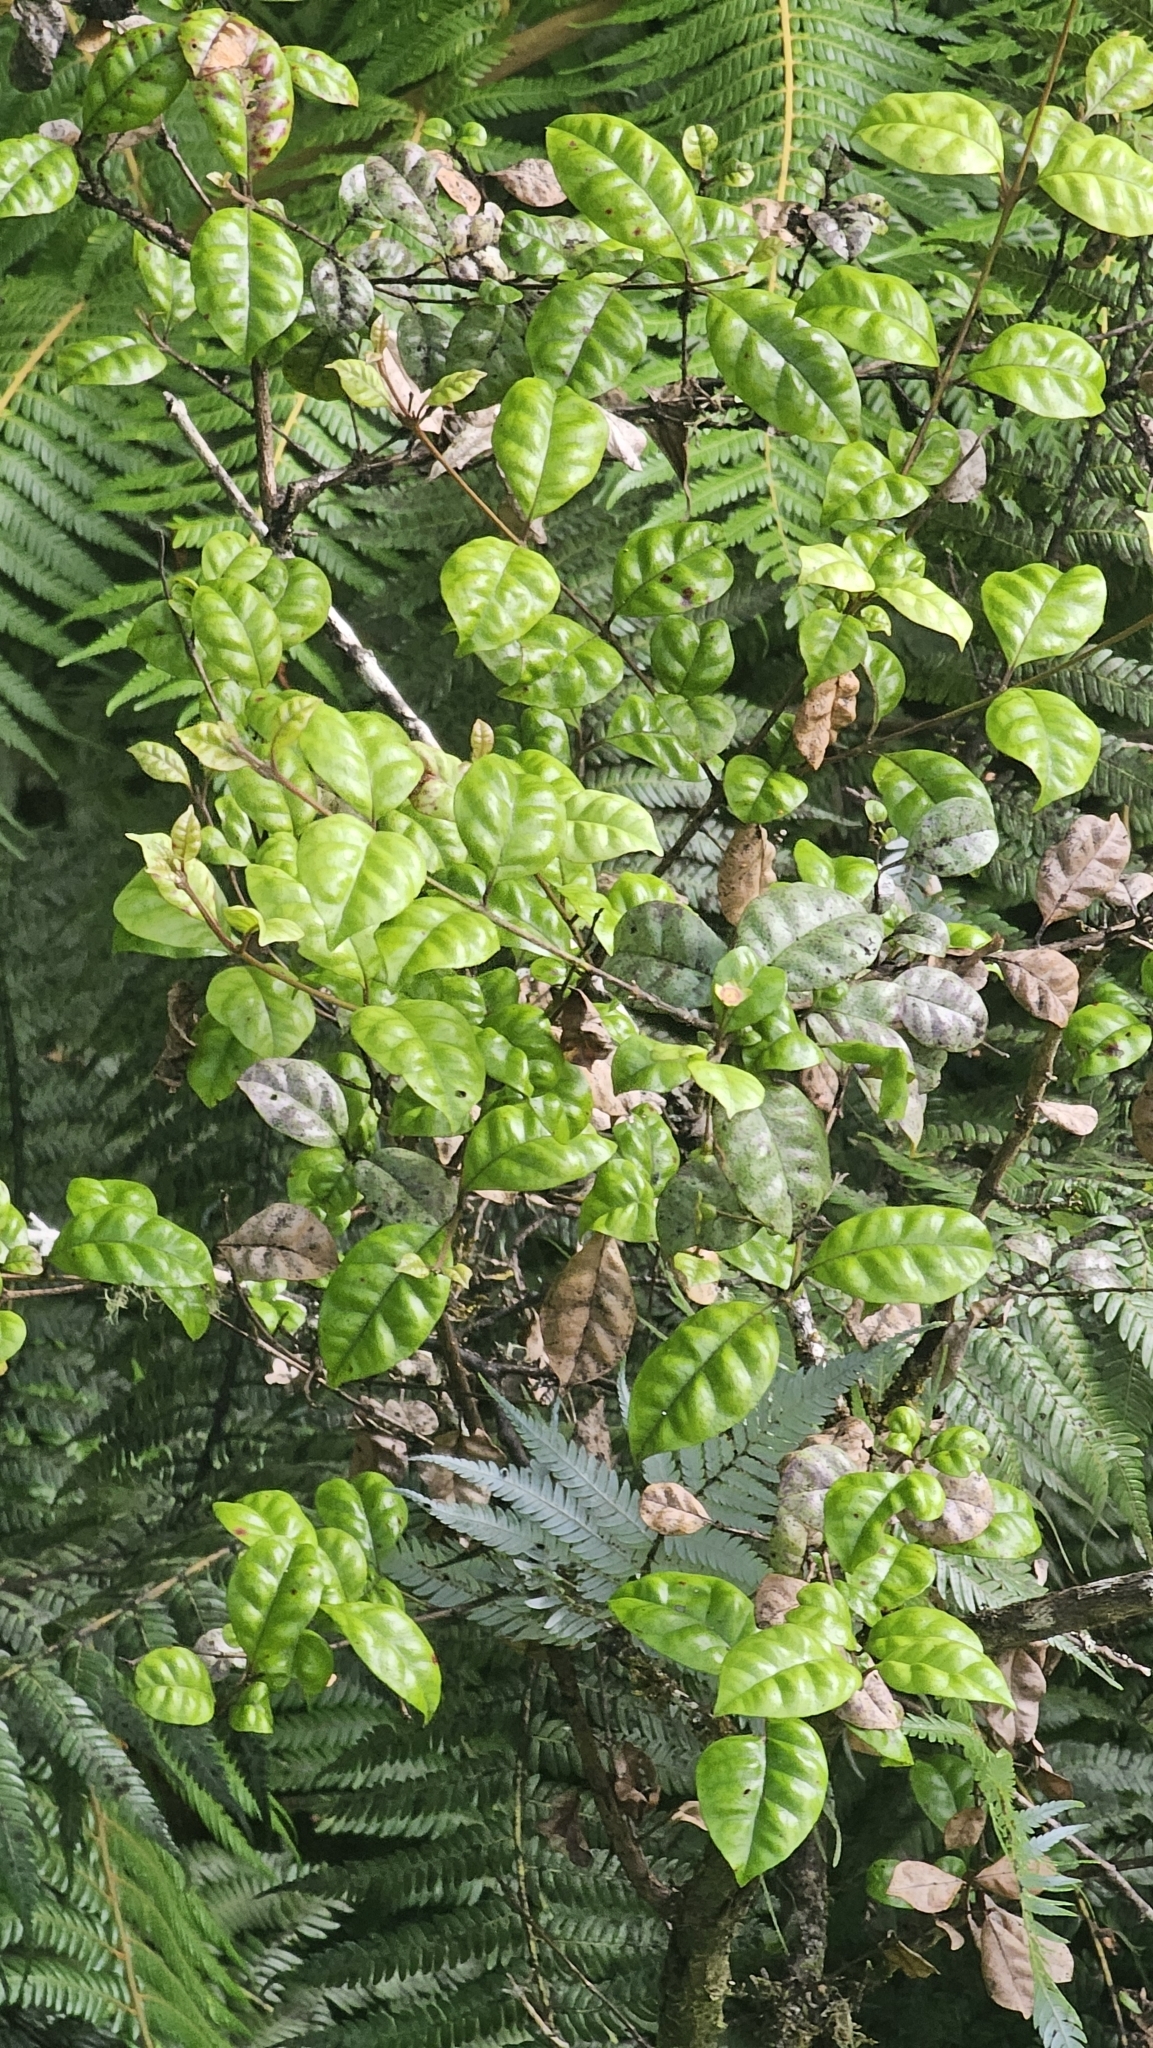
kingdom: Plantae
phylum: Tracheophyta
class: Magnoliopsida
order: Myrtales
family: Myrtaceae
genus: Lophomyrtus
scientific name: Lophomyrtus bullata
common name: Rama rama
